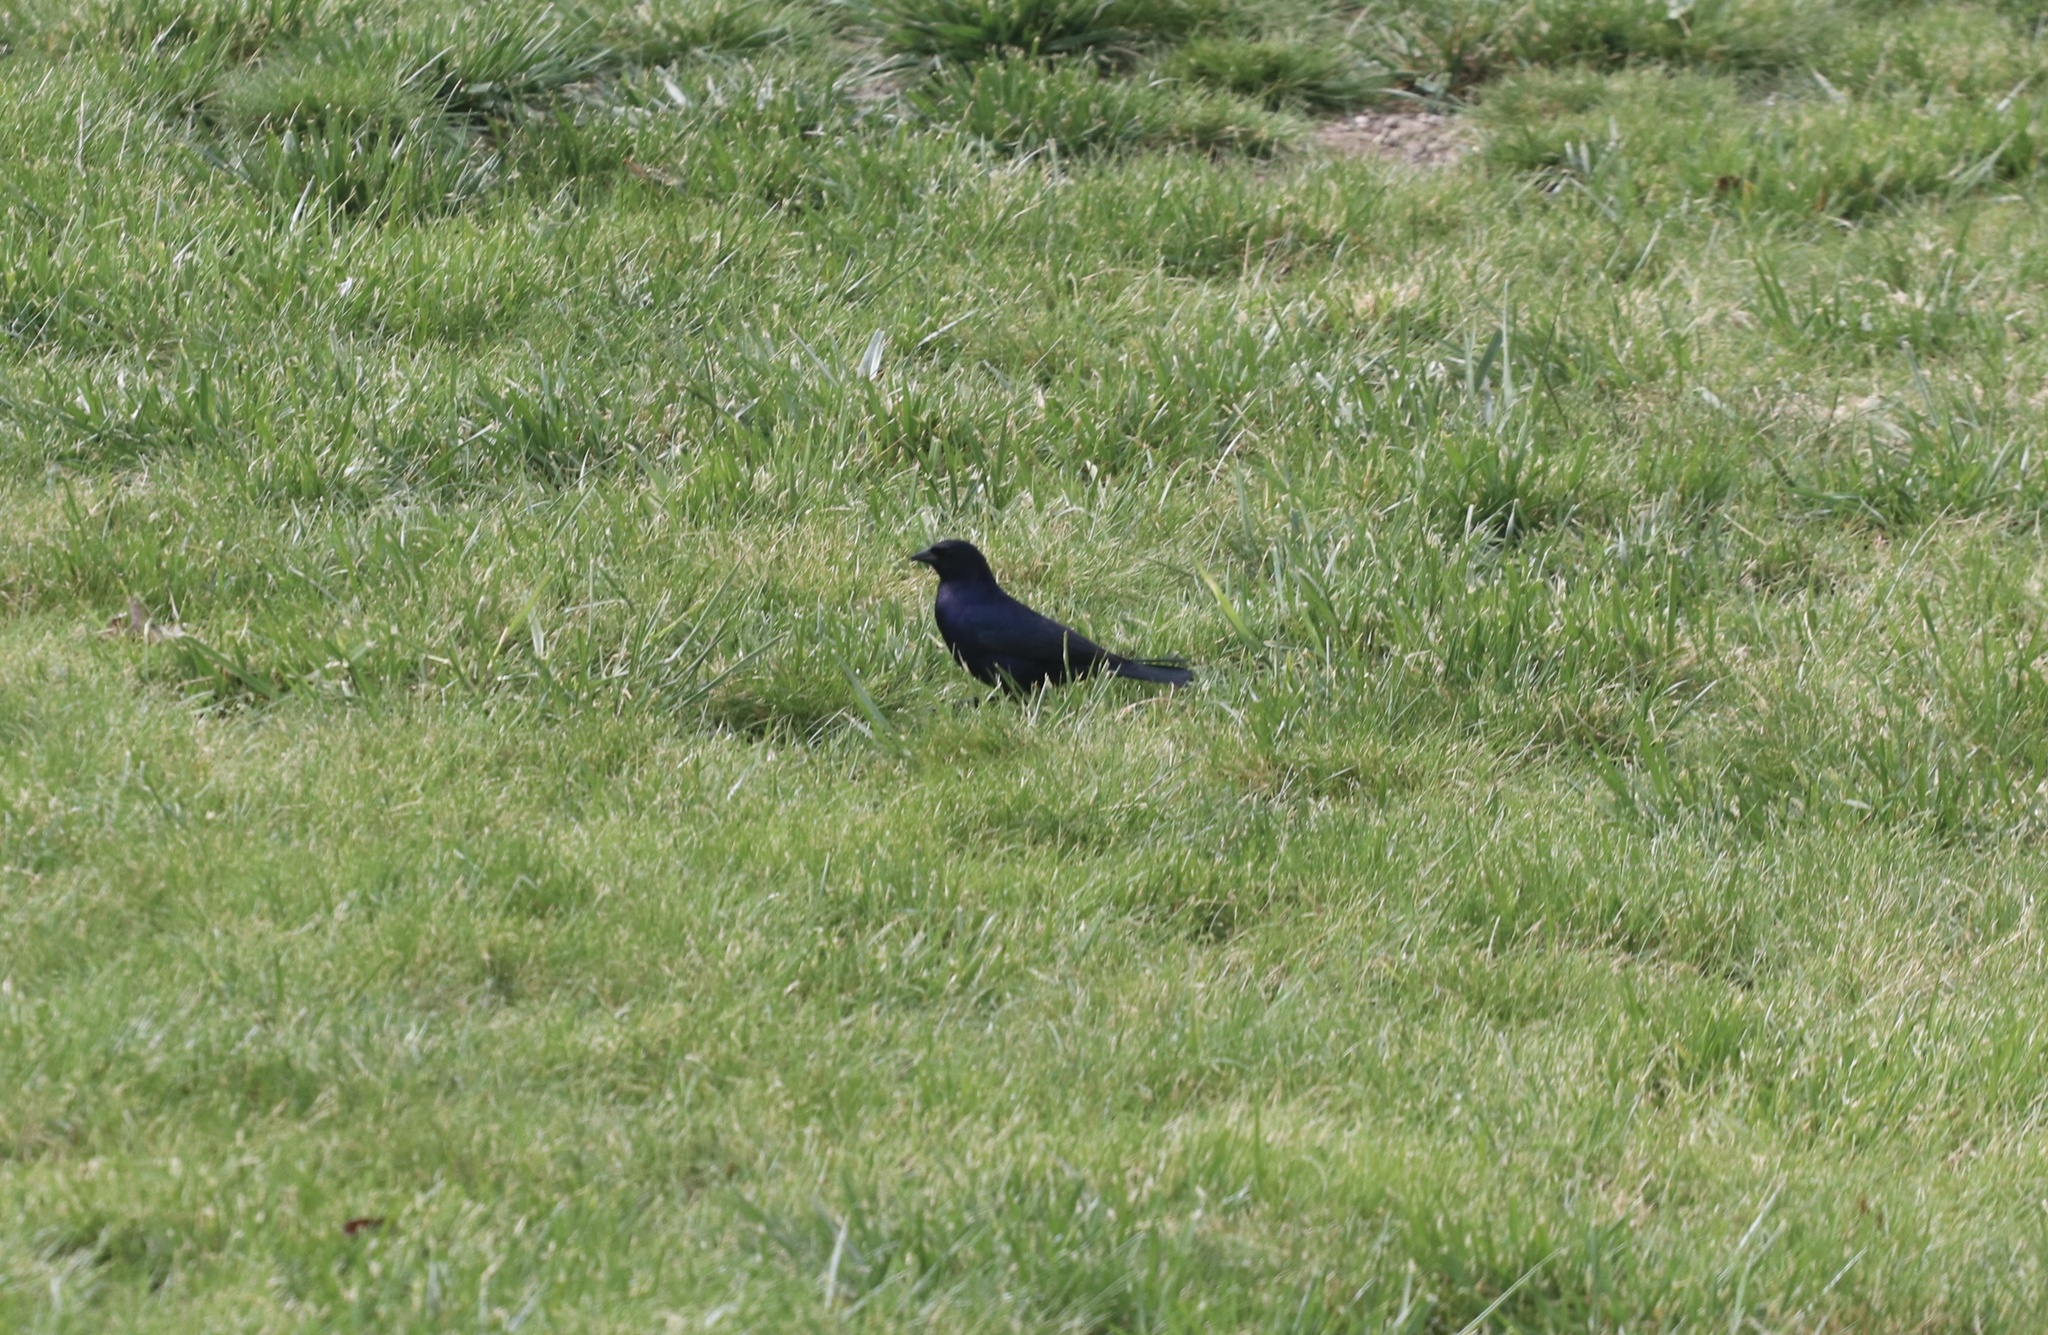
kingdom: Animalia
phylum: Chordata
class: Aves
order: Passeriformes
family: Icteridae
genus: Molothrus
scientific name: Molothrus bonariensis
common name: Shiny cowbird
